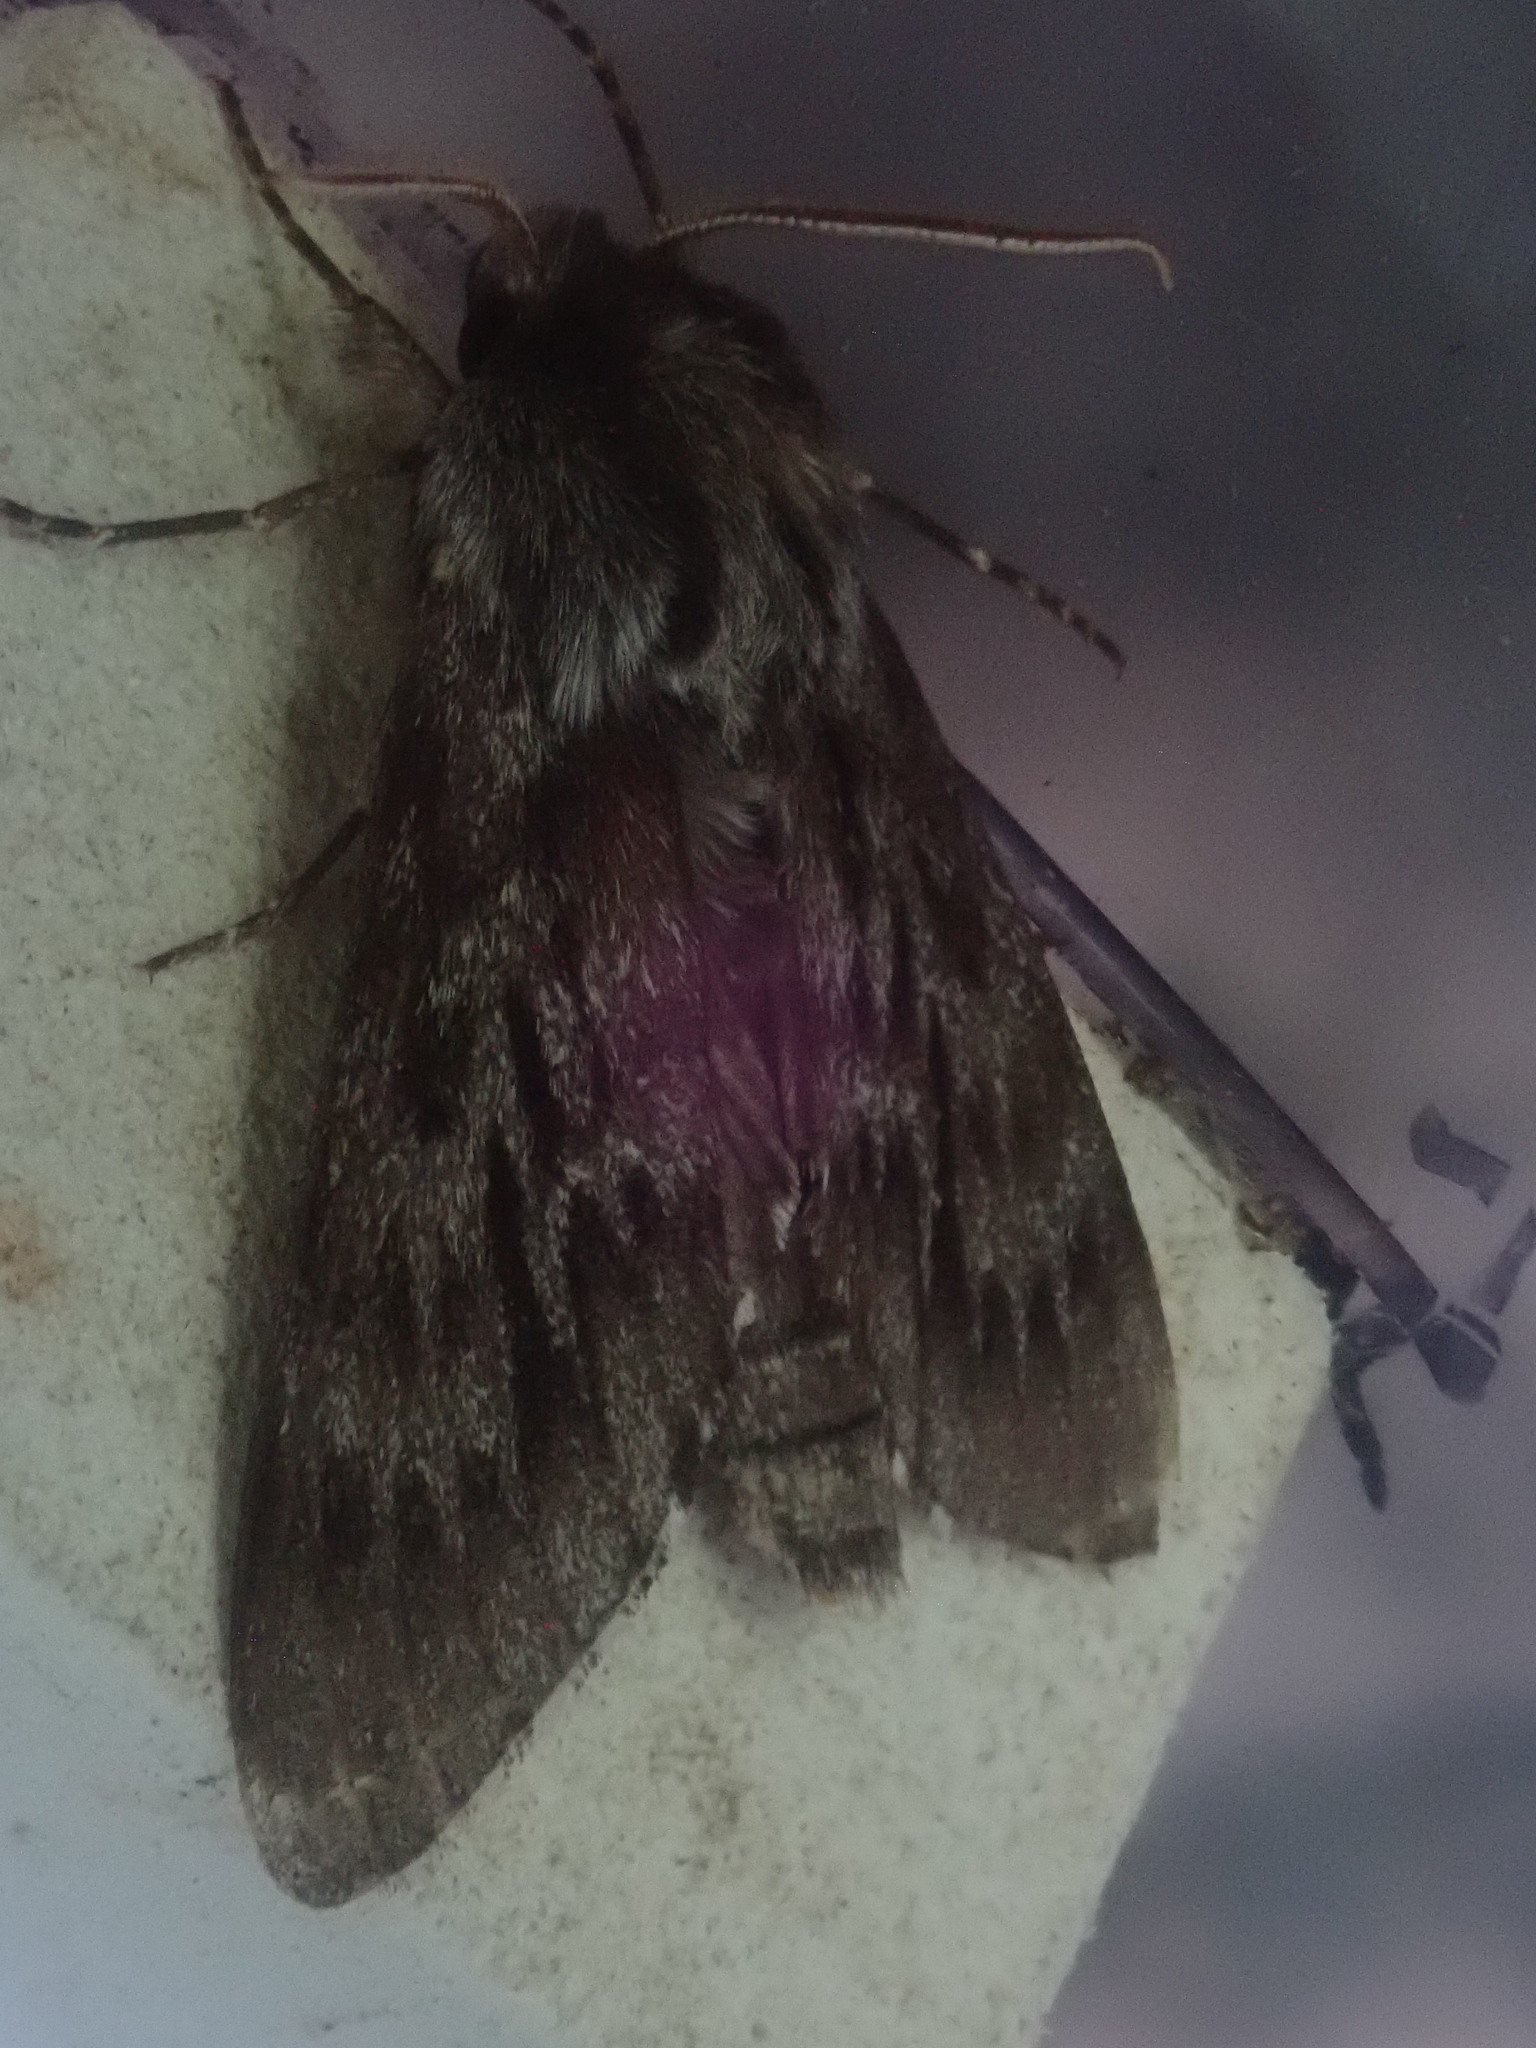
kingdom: Animalia
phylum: Arthropoda
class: Insecta
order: Lepidoptera
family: Sphingidae
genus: Lapara
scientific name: Lapara bombycoides
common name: Northern pine sphinx
